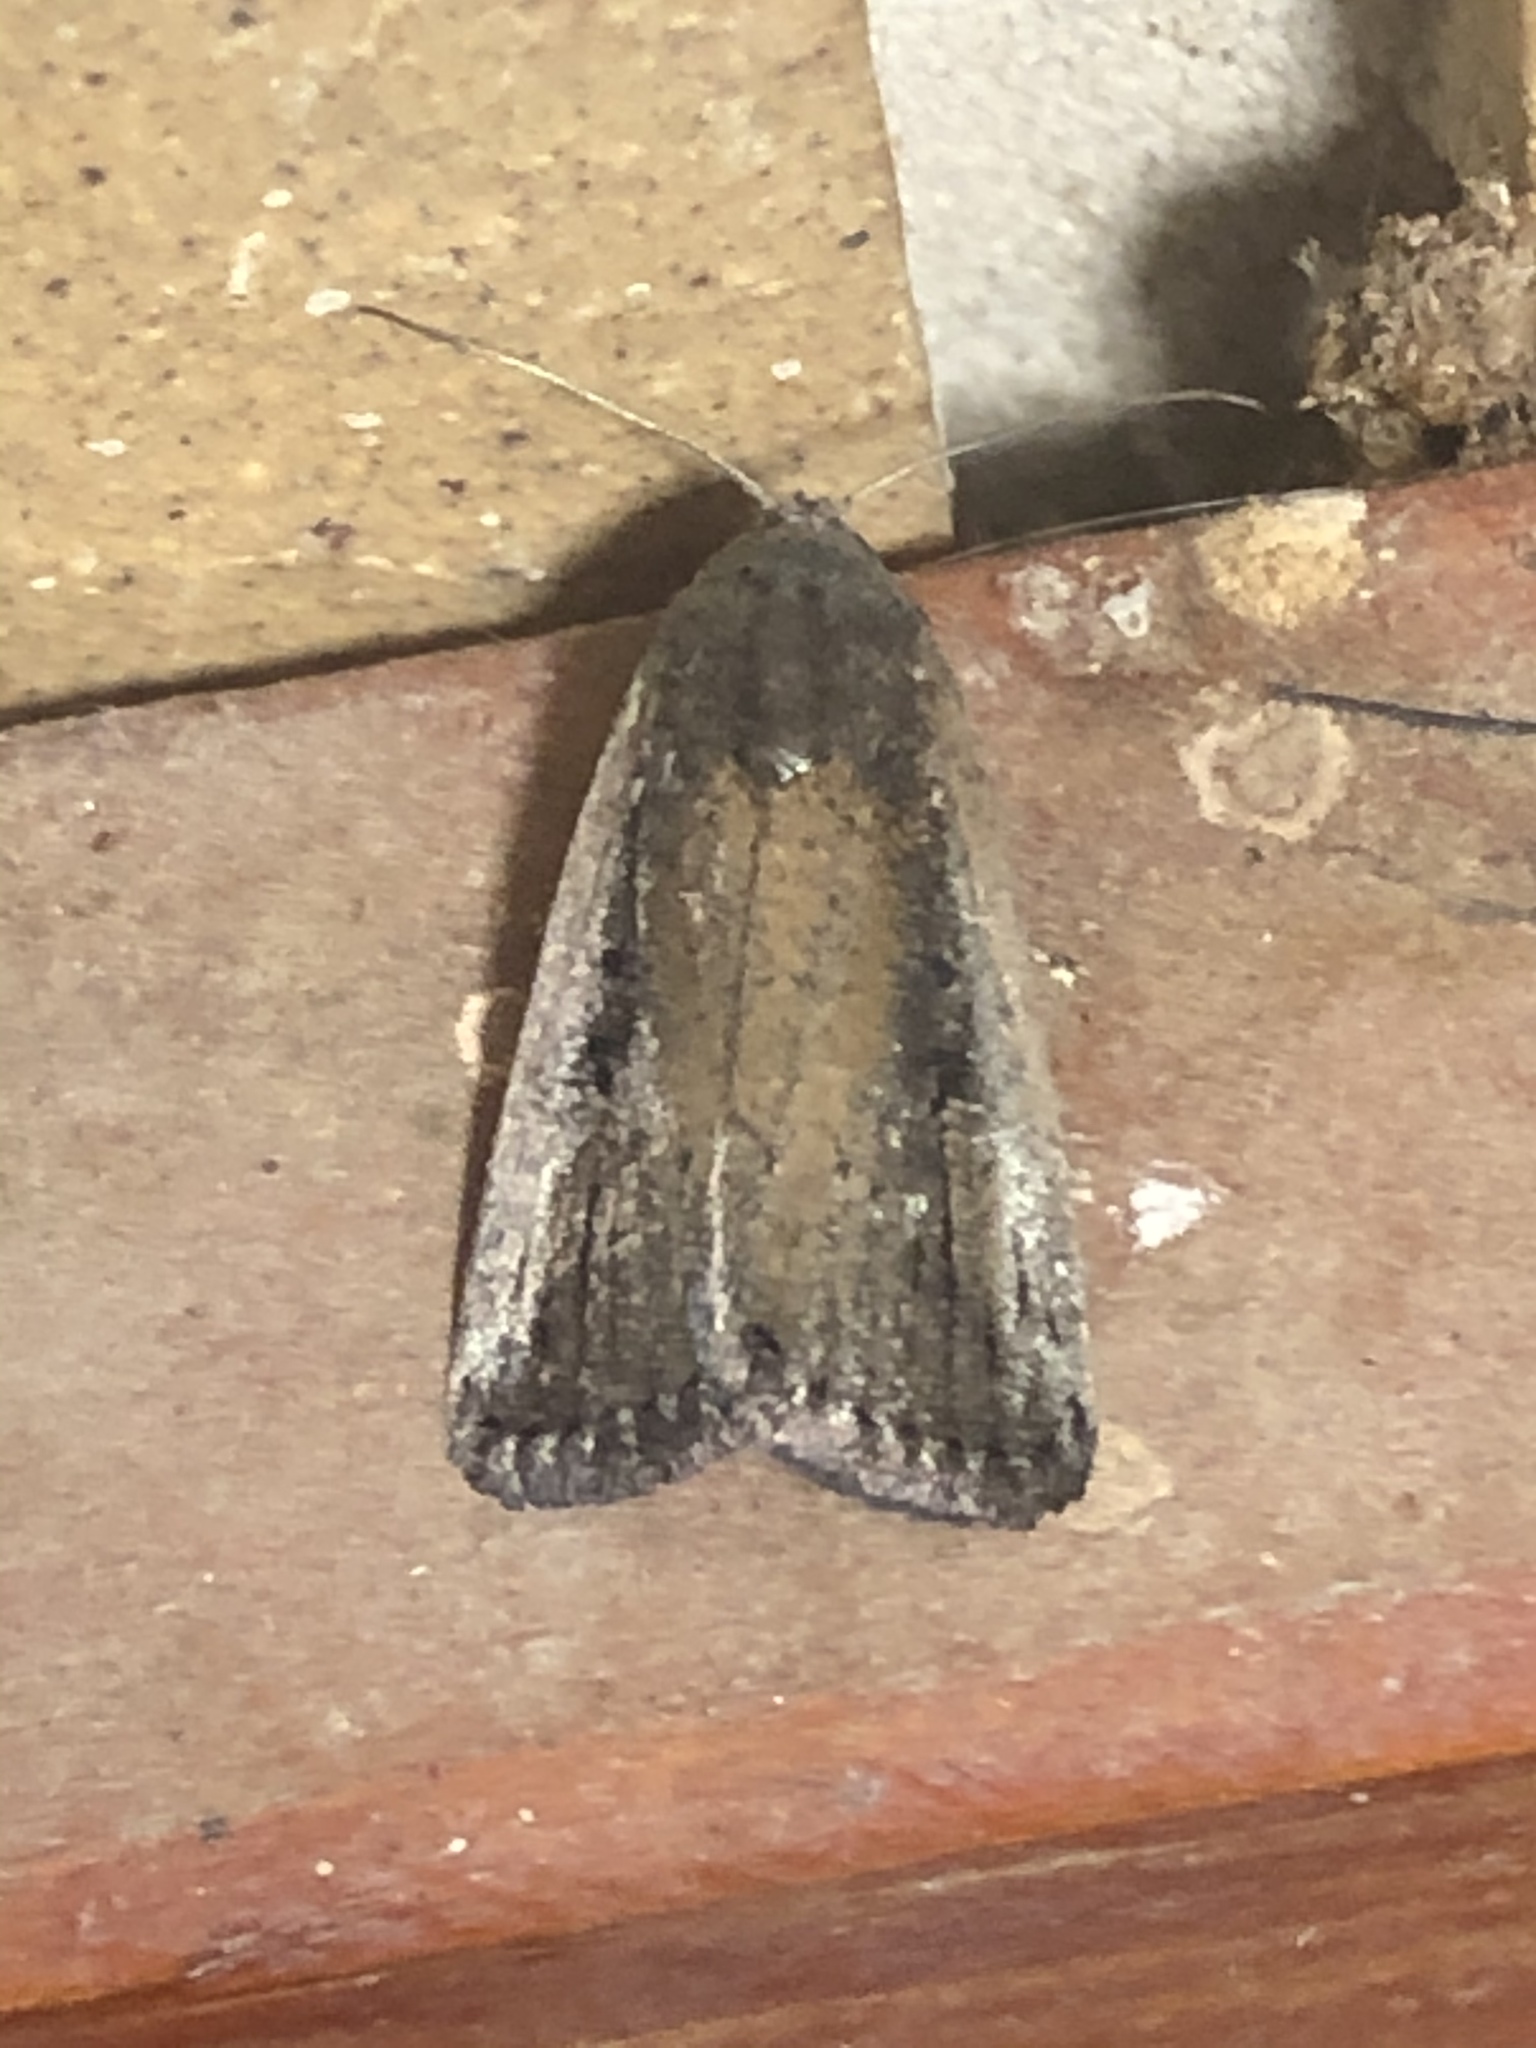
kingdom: Animalia
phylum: Arthropoda
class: Insecta
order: Lepidoptera
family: Noctuidae
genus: Athetis
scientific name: Athetis striolata
